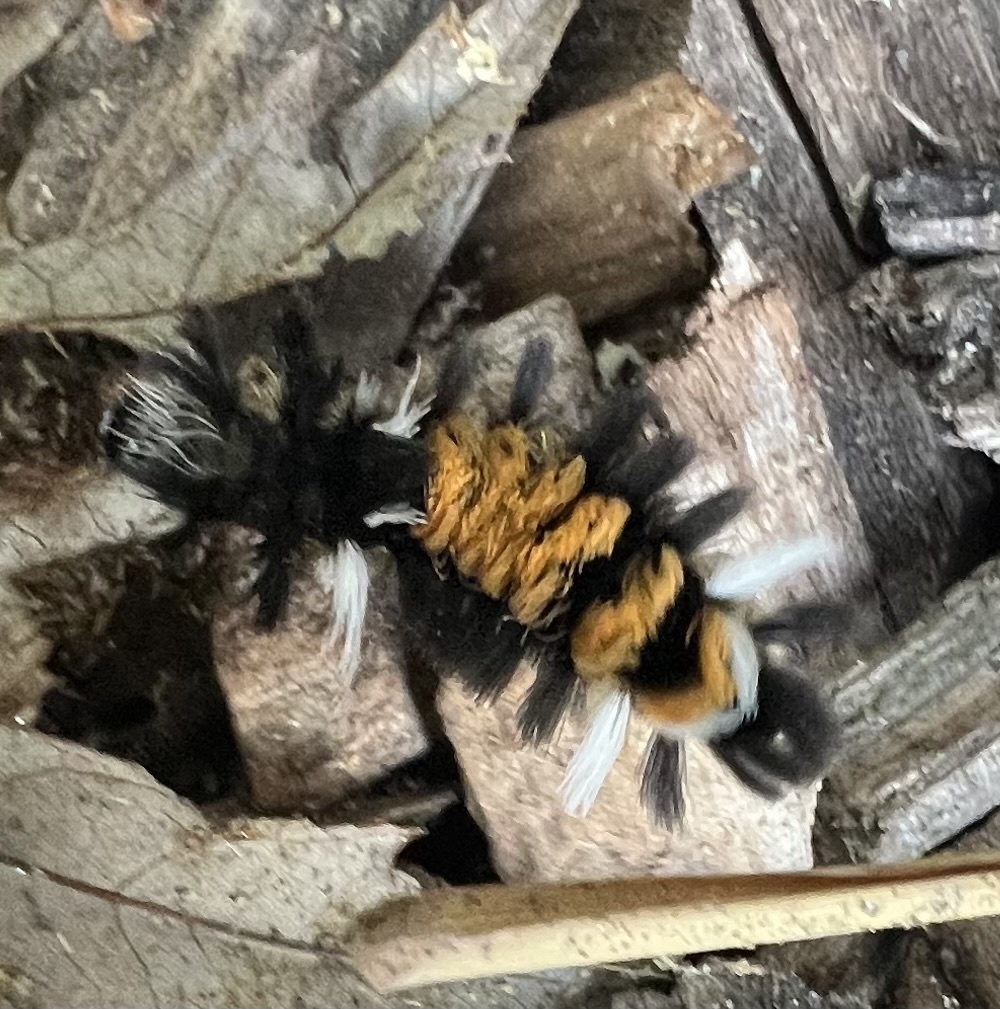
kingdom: Animalia
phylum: Arthropoda
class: Insecta
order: Lepidoptera
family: Erebidae
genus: Euchaetes
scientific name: Euchaetes egle
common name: Milkweed tussock moth
